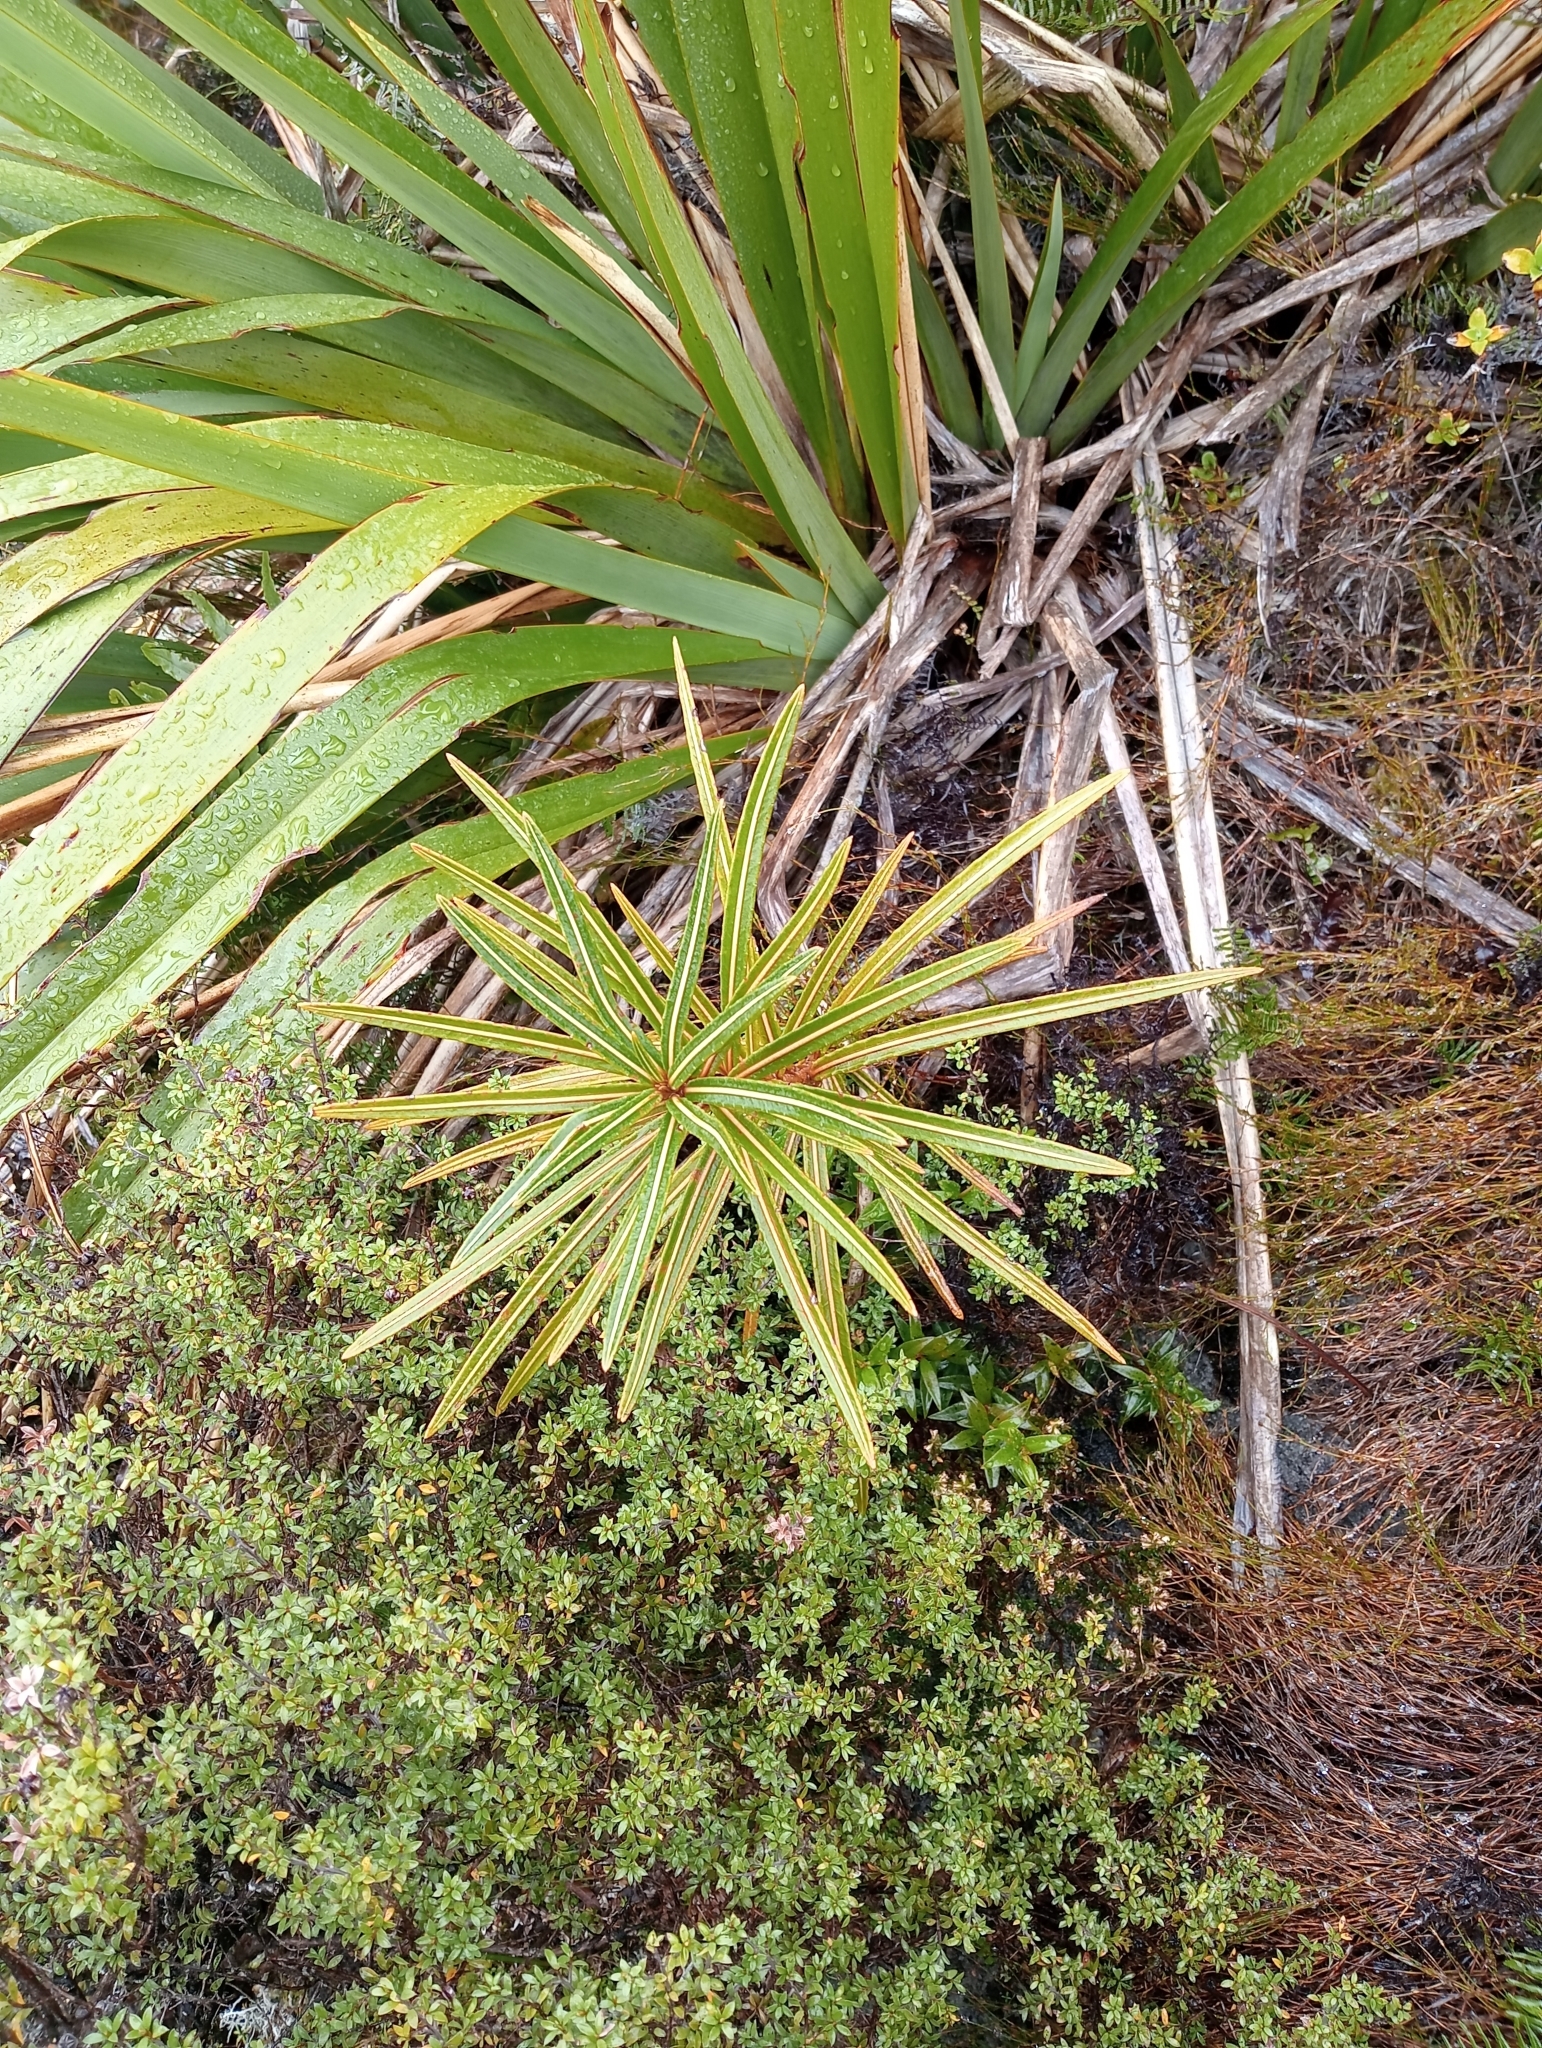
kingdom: Plantae
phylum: Tracheophyta
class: Magnoliopsida
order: Apiales
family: Araliaceae
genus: Pseudopanax
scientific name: Pseudopanax linearis
